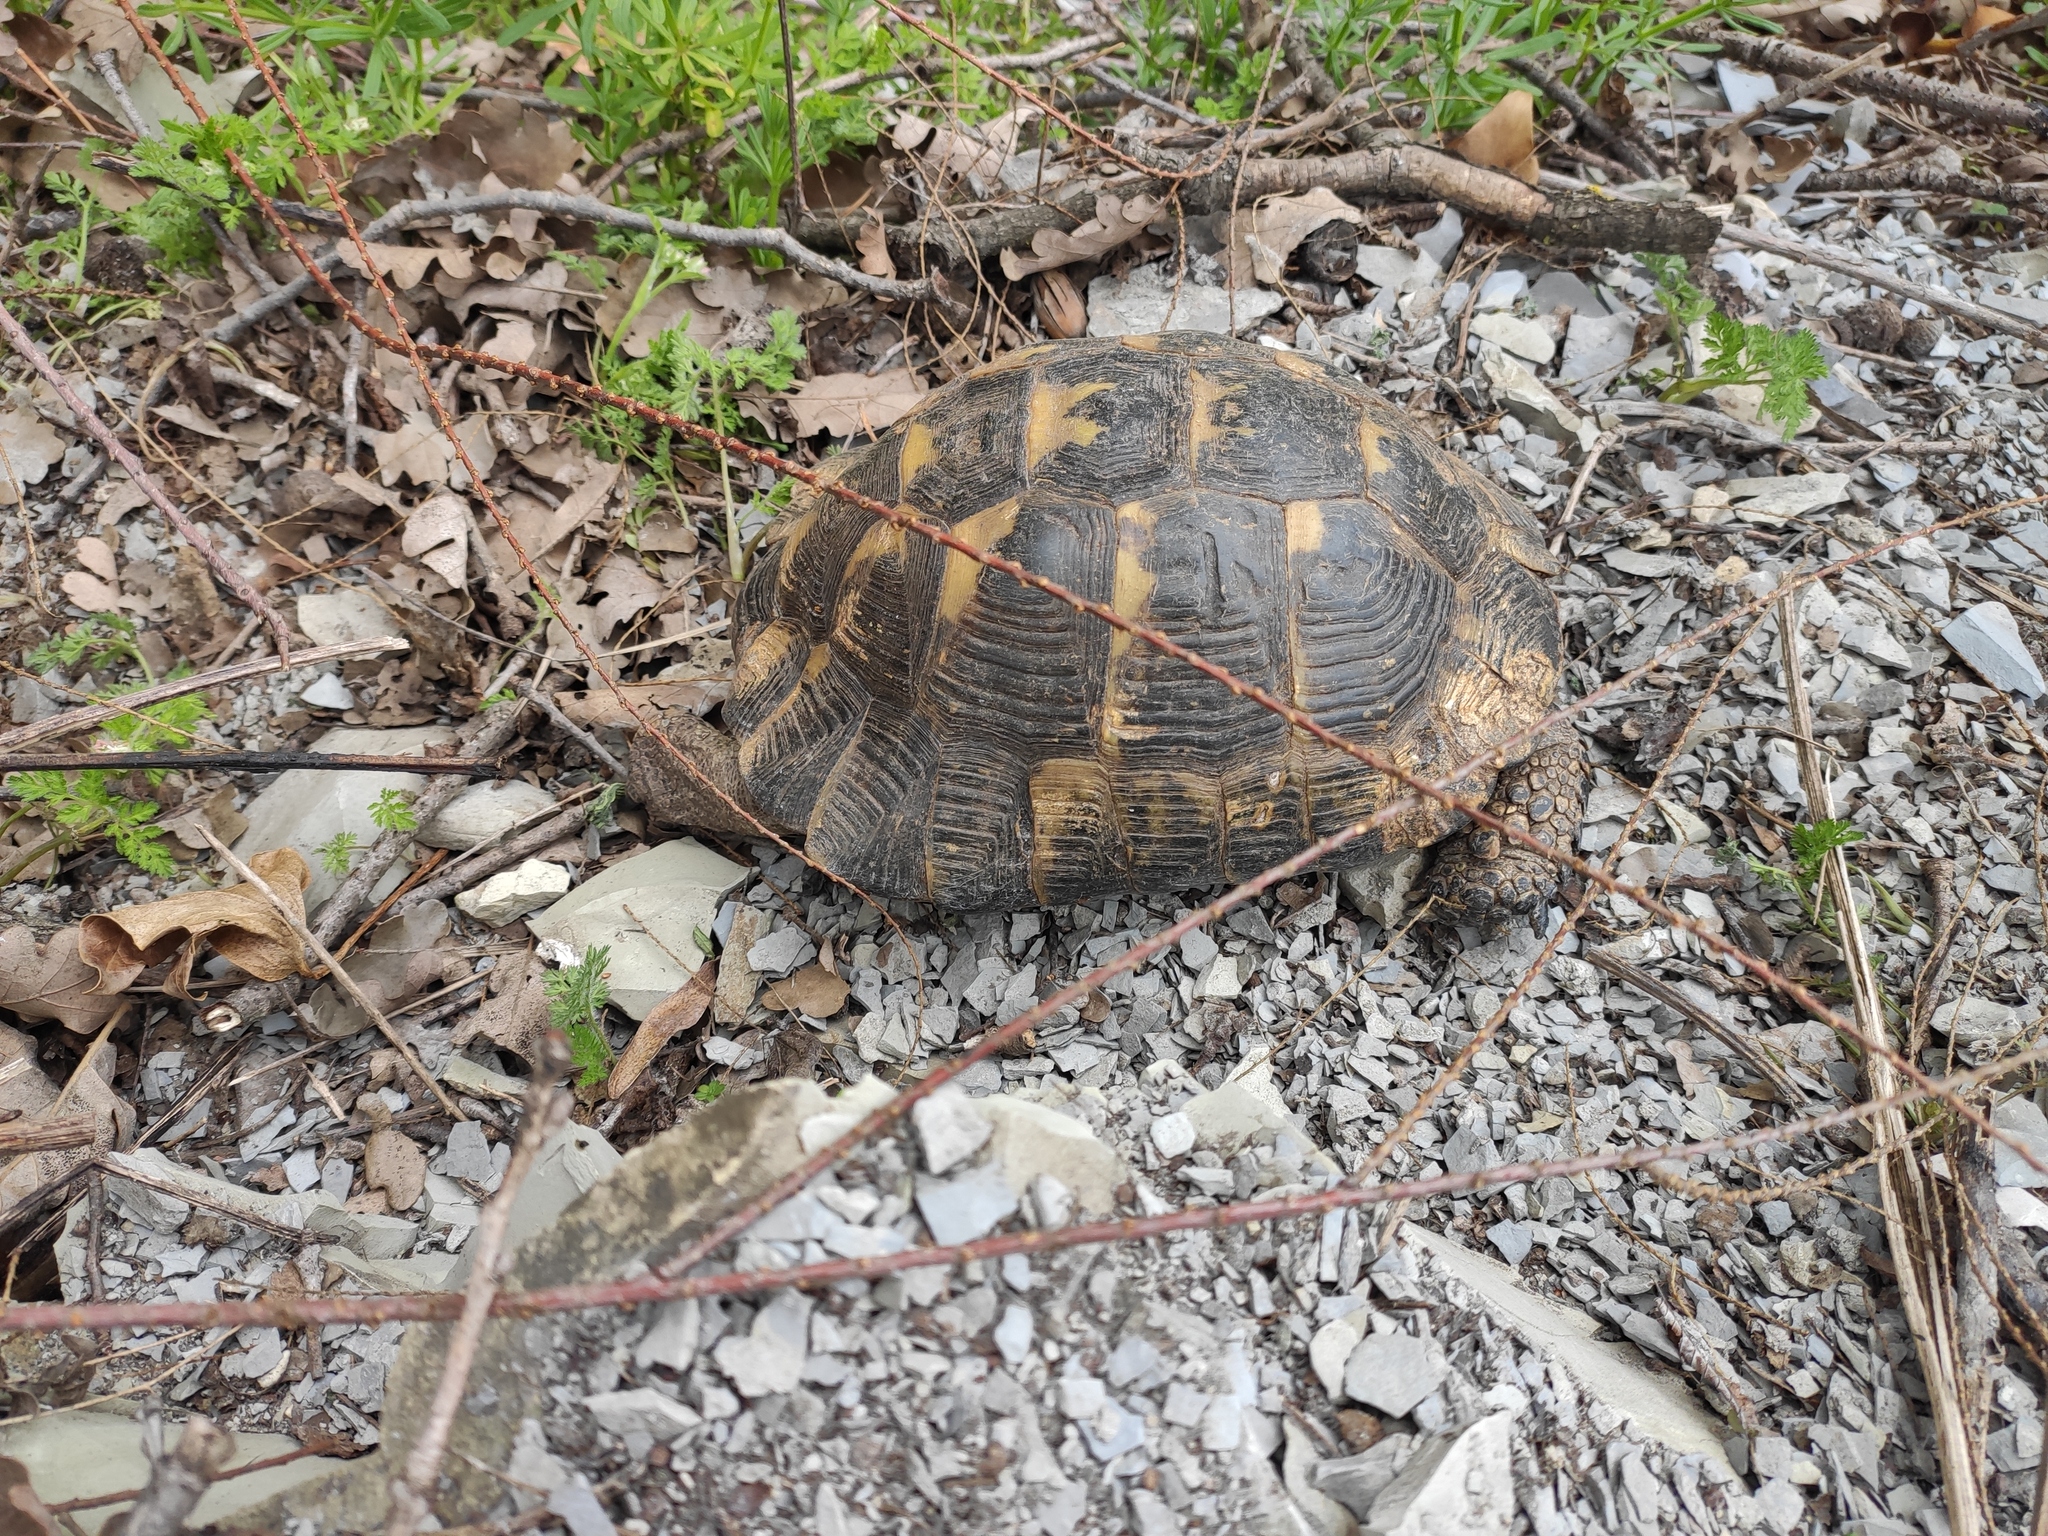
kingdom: Animalia
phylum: Chordata
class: Testudines
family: Testudinidae
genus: Testudo
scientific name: Testudo graeca
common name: Common tortoise
